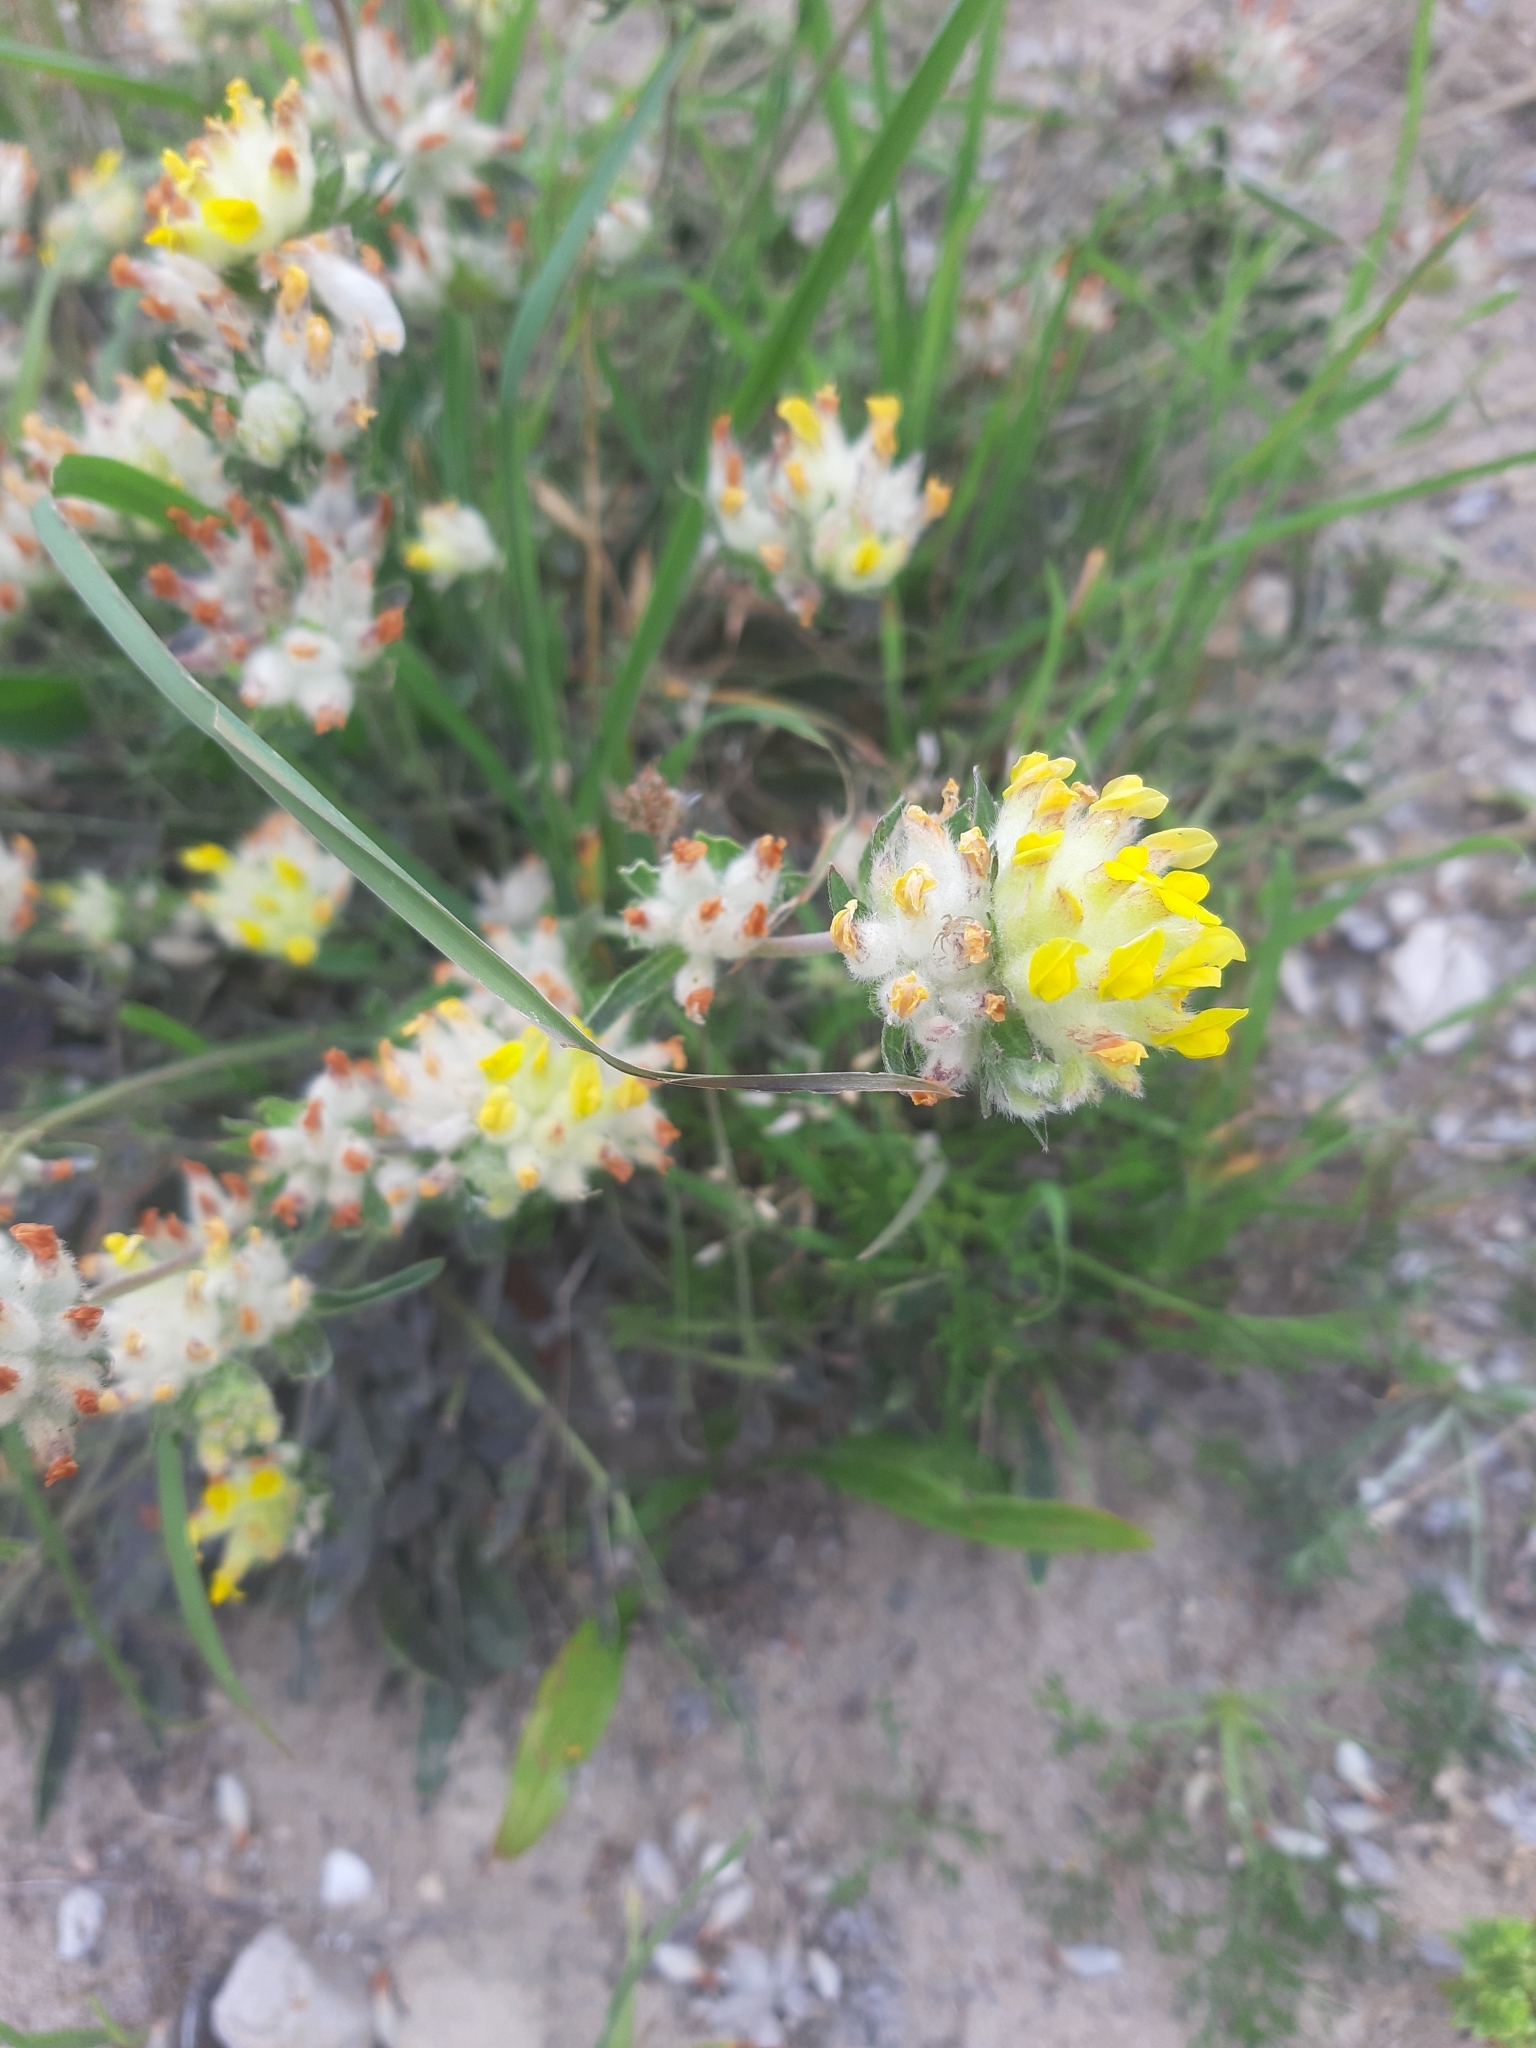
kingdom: Plantae
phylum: Tracheophyta
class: Magnoliopsida
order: Fabales
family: Fabaceae
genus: Anthyllis
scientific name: Anthyllis vulneraria
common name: Kidney vetch
